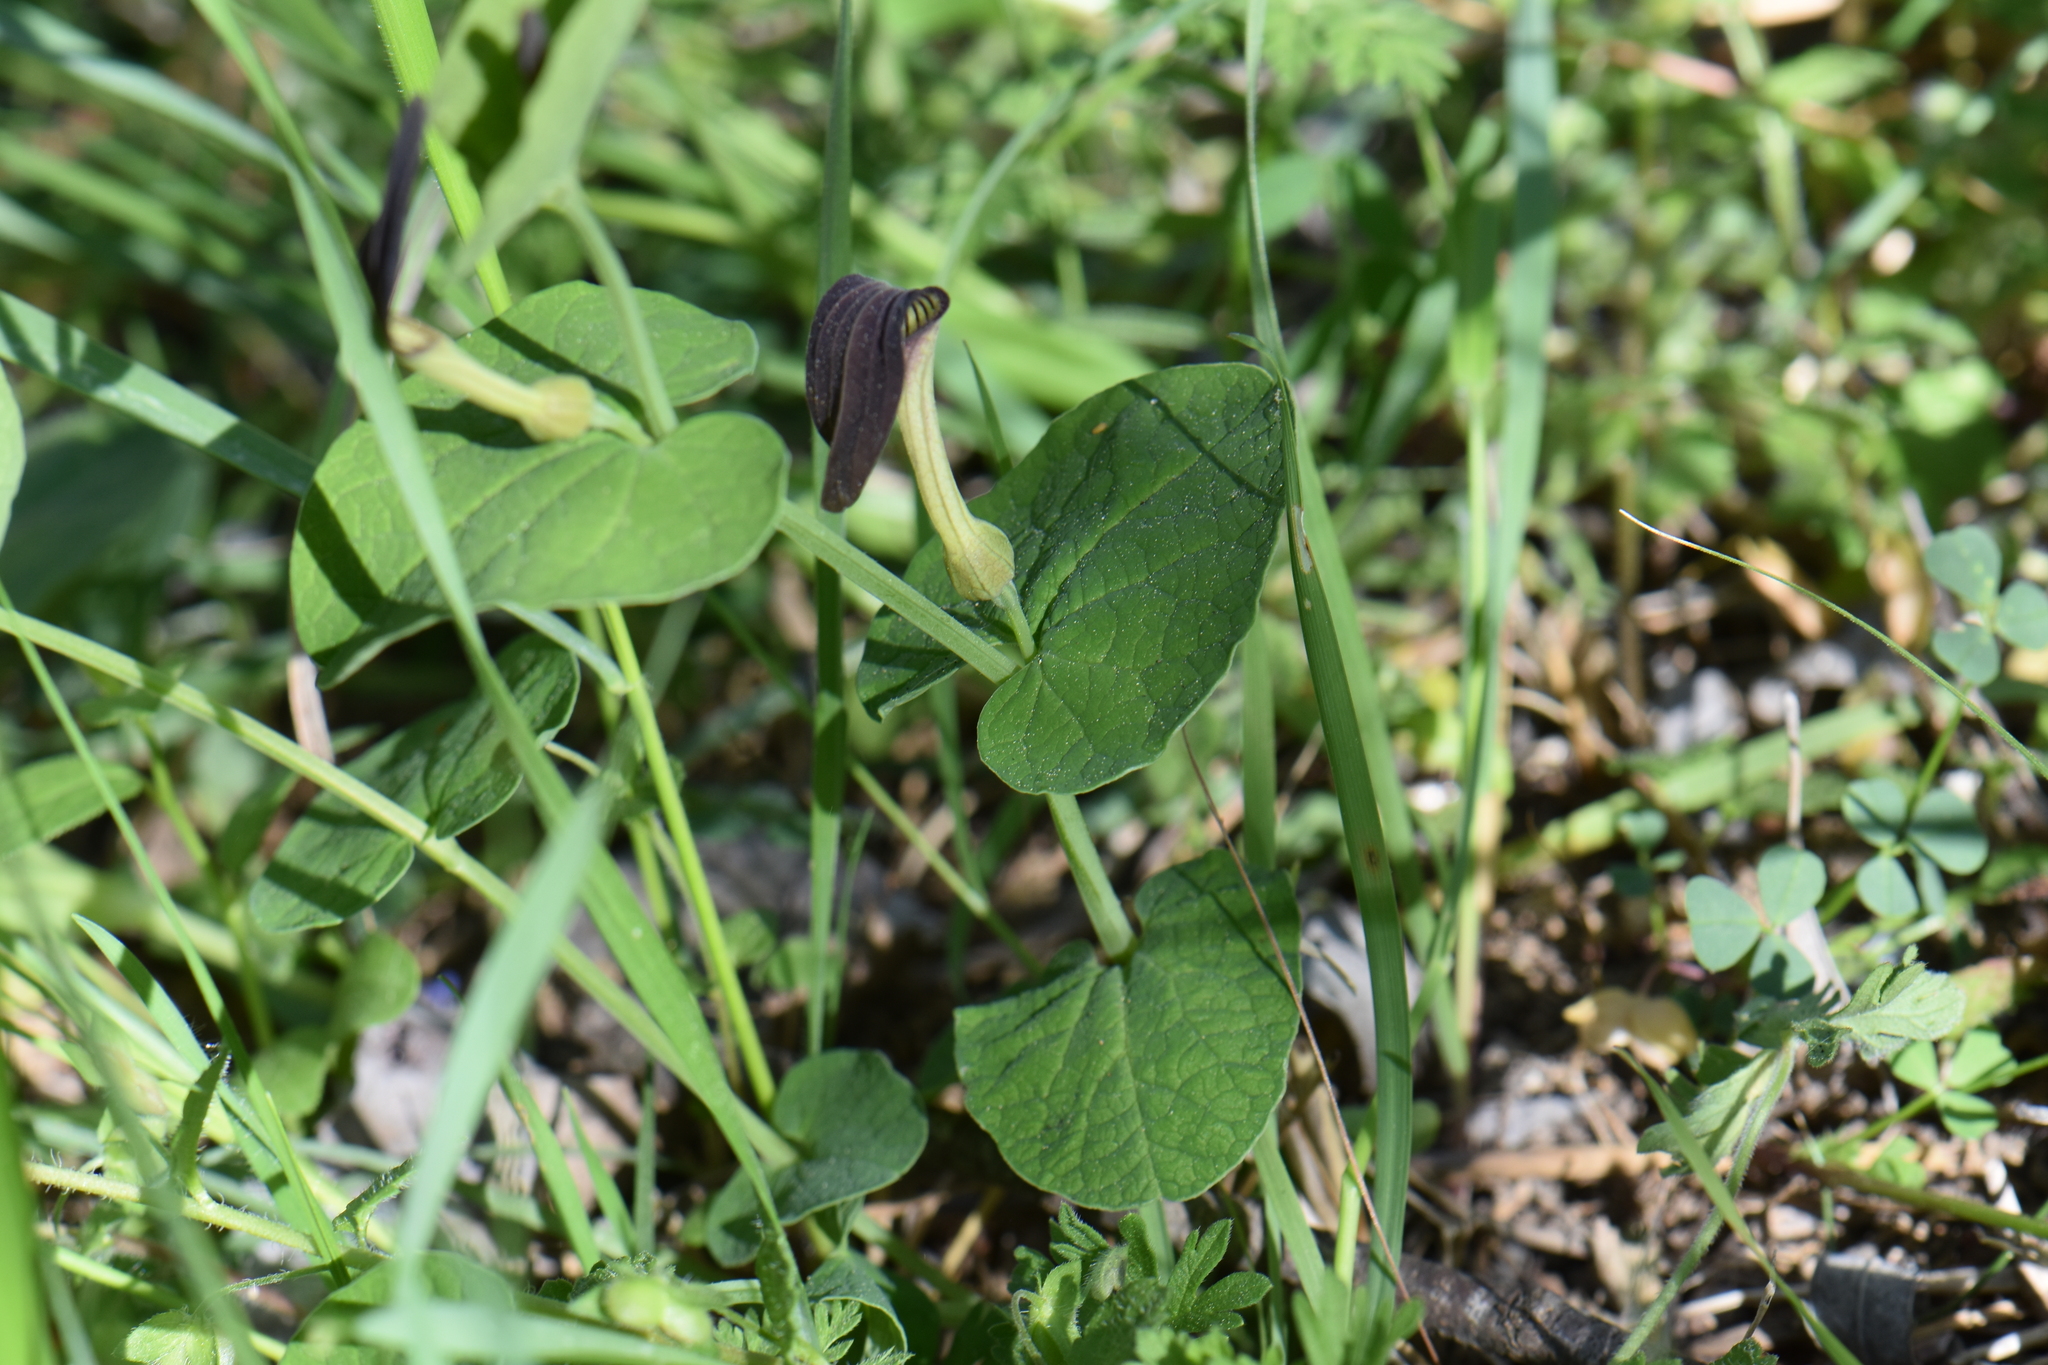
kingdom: Plantae
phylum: Tracheophyta
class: Magnoliopsida
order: Piperales
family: Aristolochiaceae
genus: Aristolochia
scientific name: Aristolochia rotunda
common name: Smearwort
